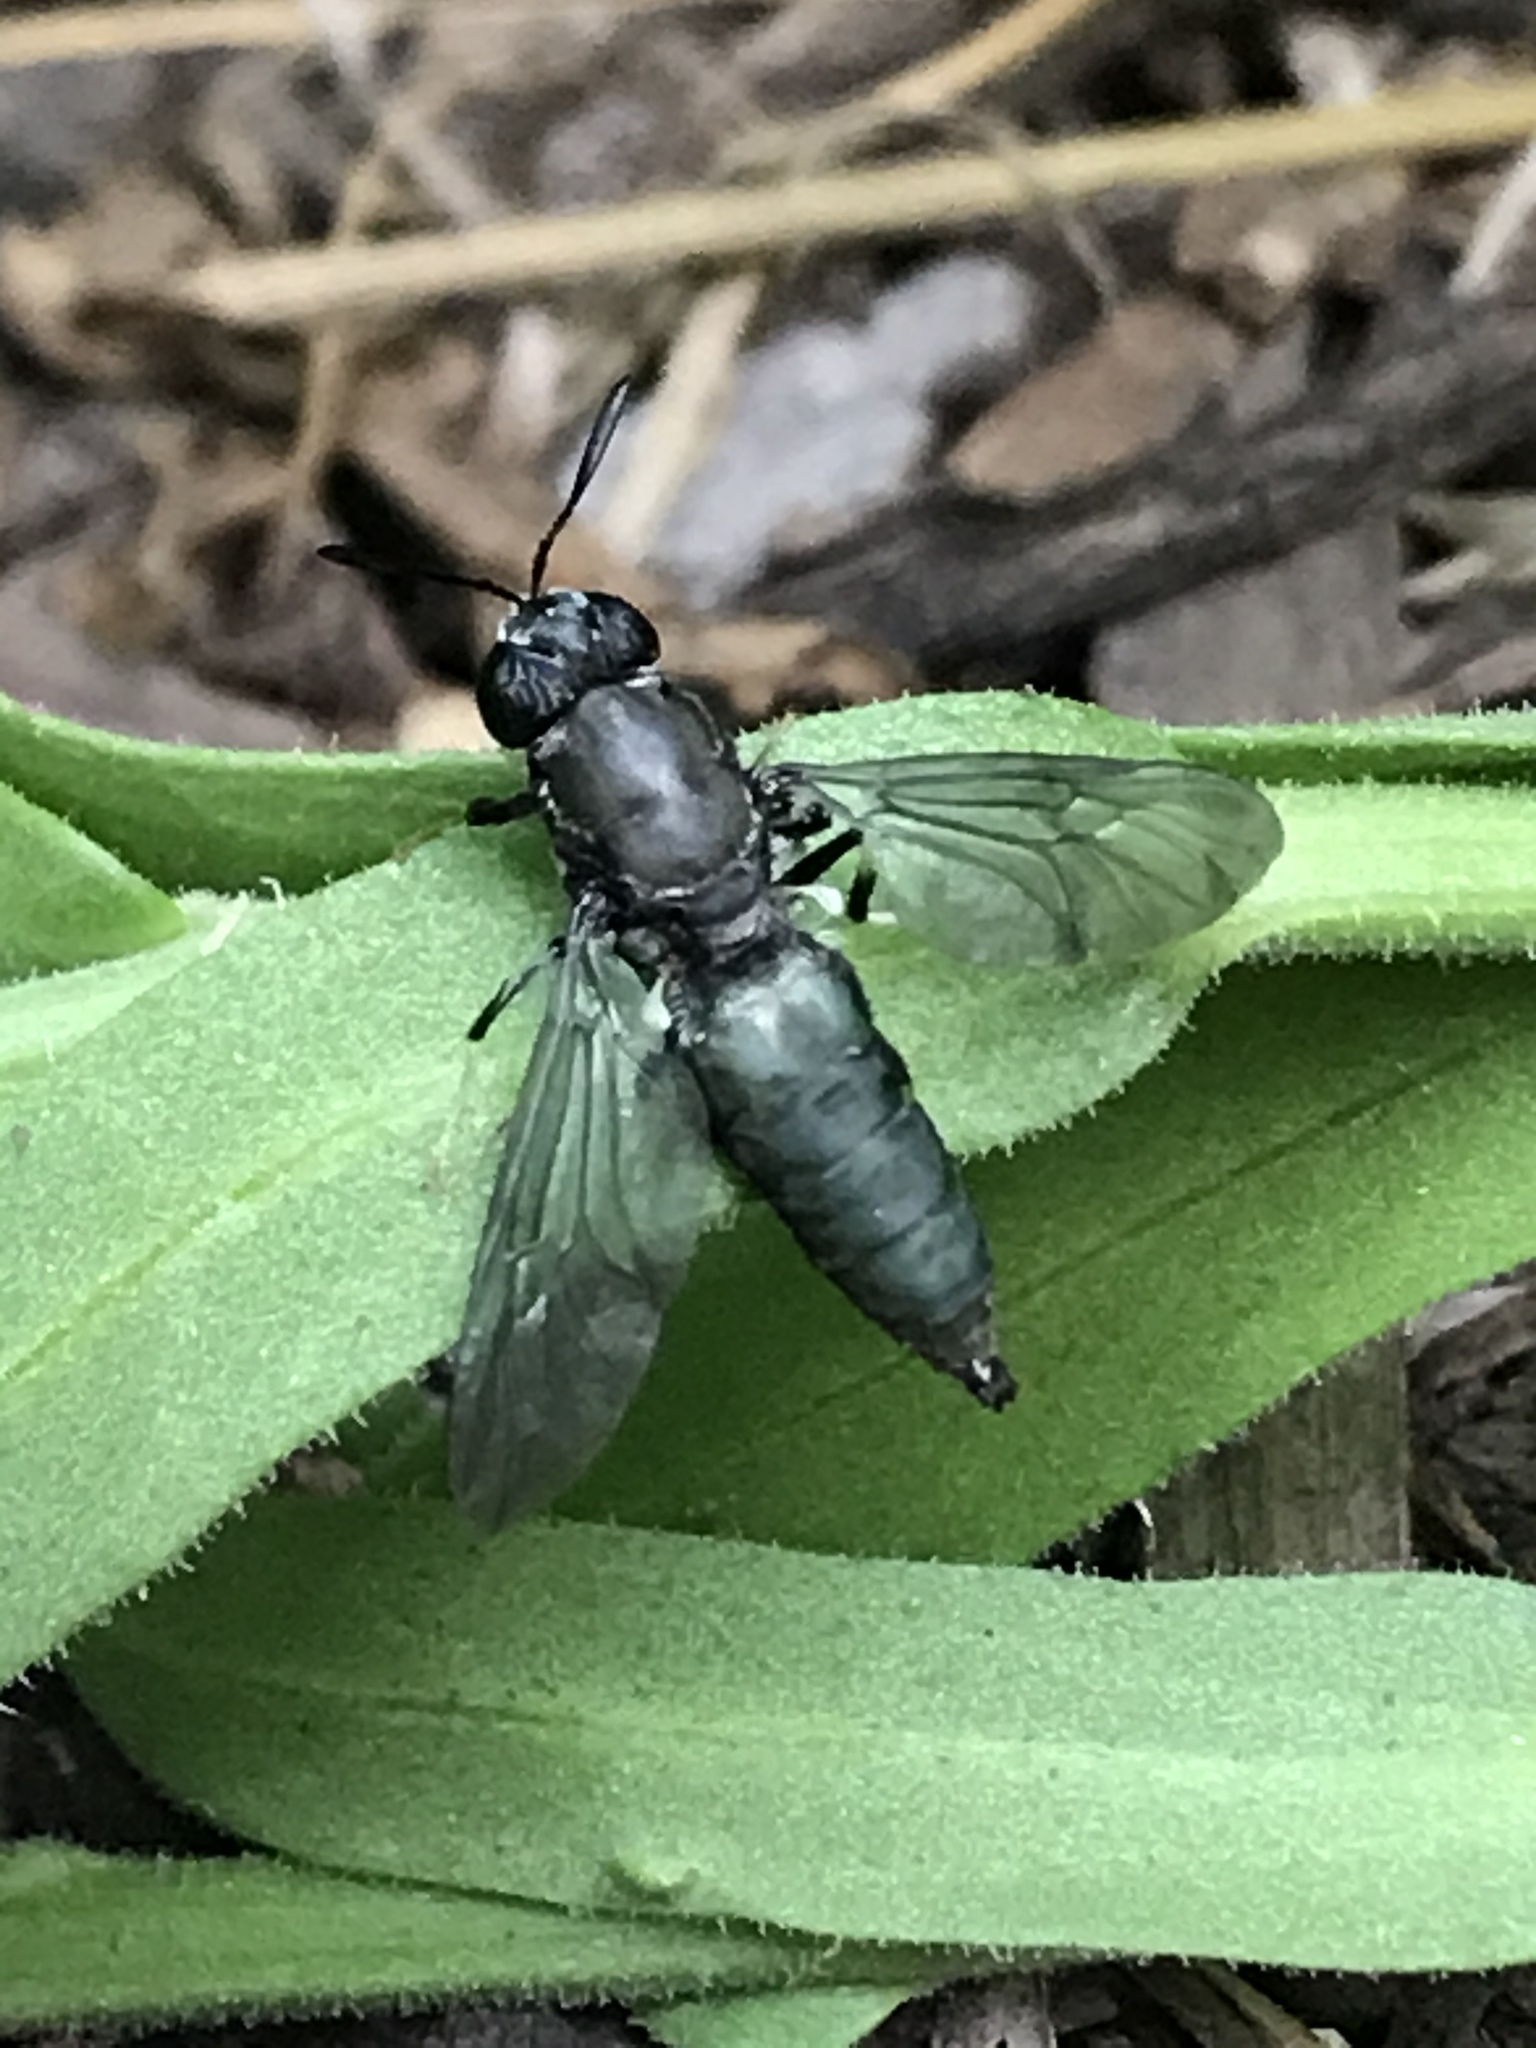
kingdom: Animalia
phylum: Arthropoda
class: Insecta
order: Diptera
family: Stratiomyidae
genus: Hermetia
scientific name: Hermetia illucens
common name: Black soldier fly
